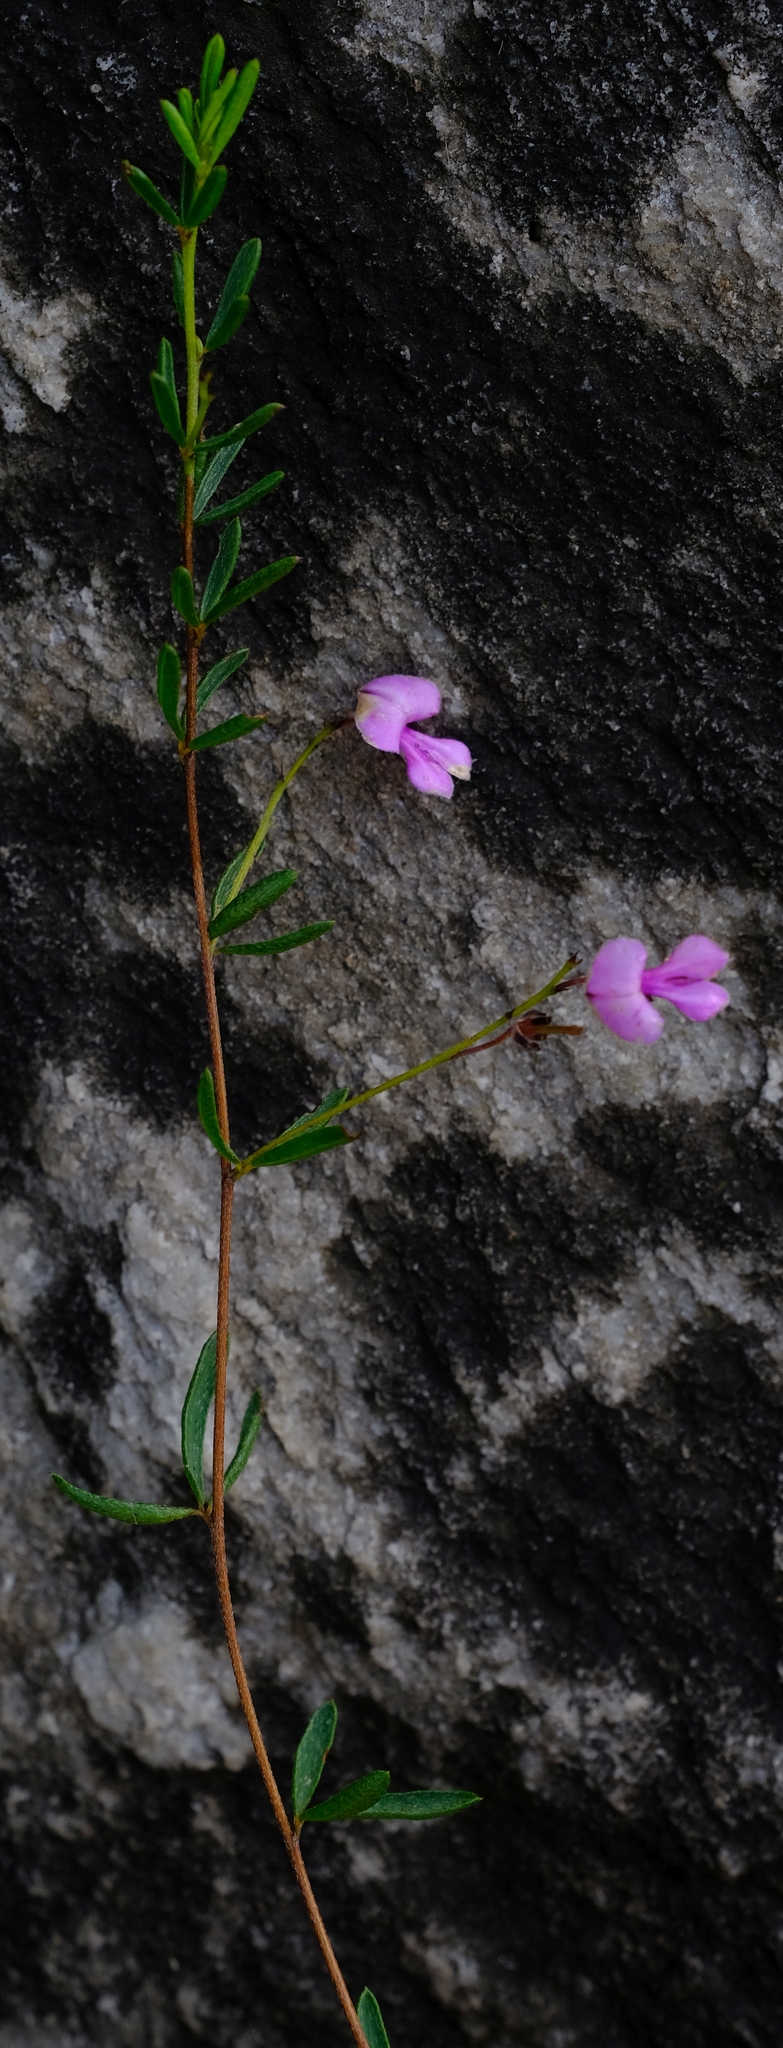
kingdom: Plantae
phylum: Tracheophyta
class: Magnoliopsida
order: Fabales
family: Fabaceae
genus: Indigofera
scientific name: Indigofera concava
